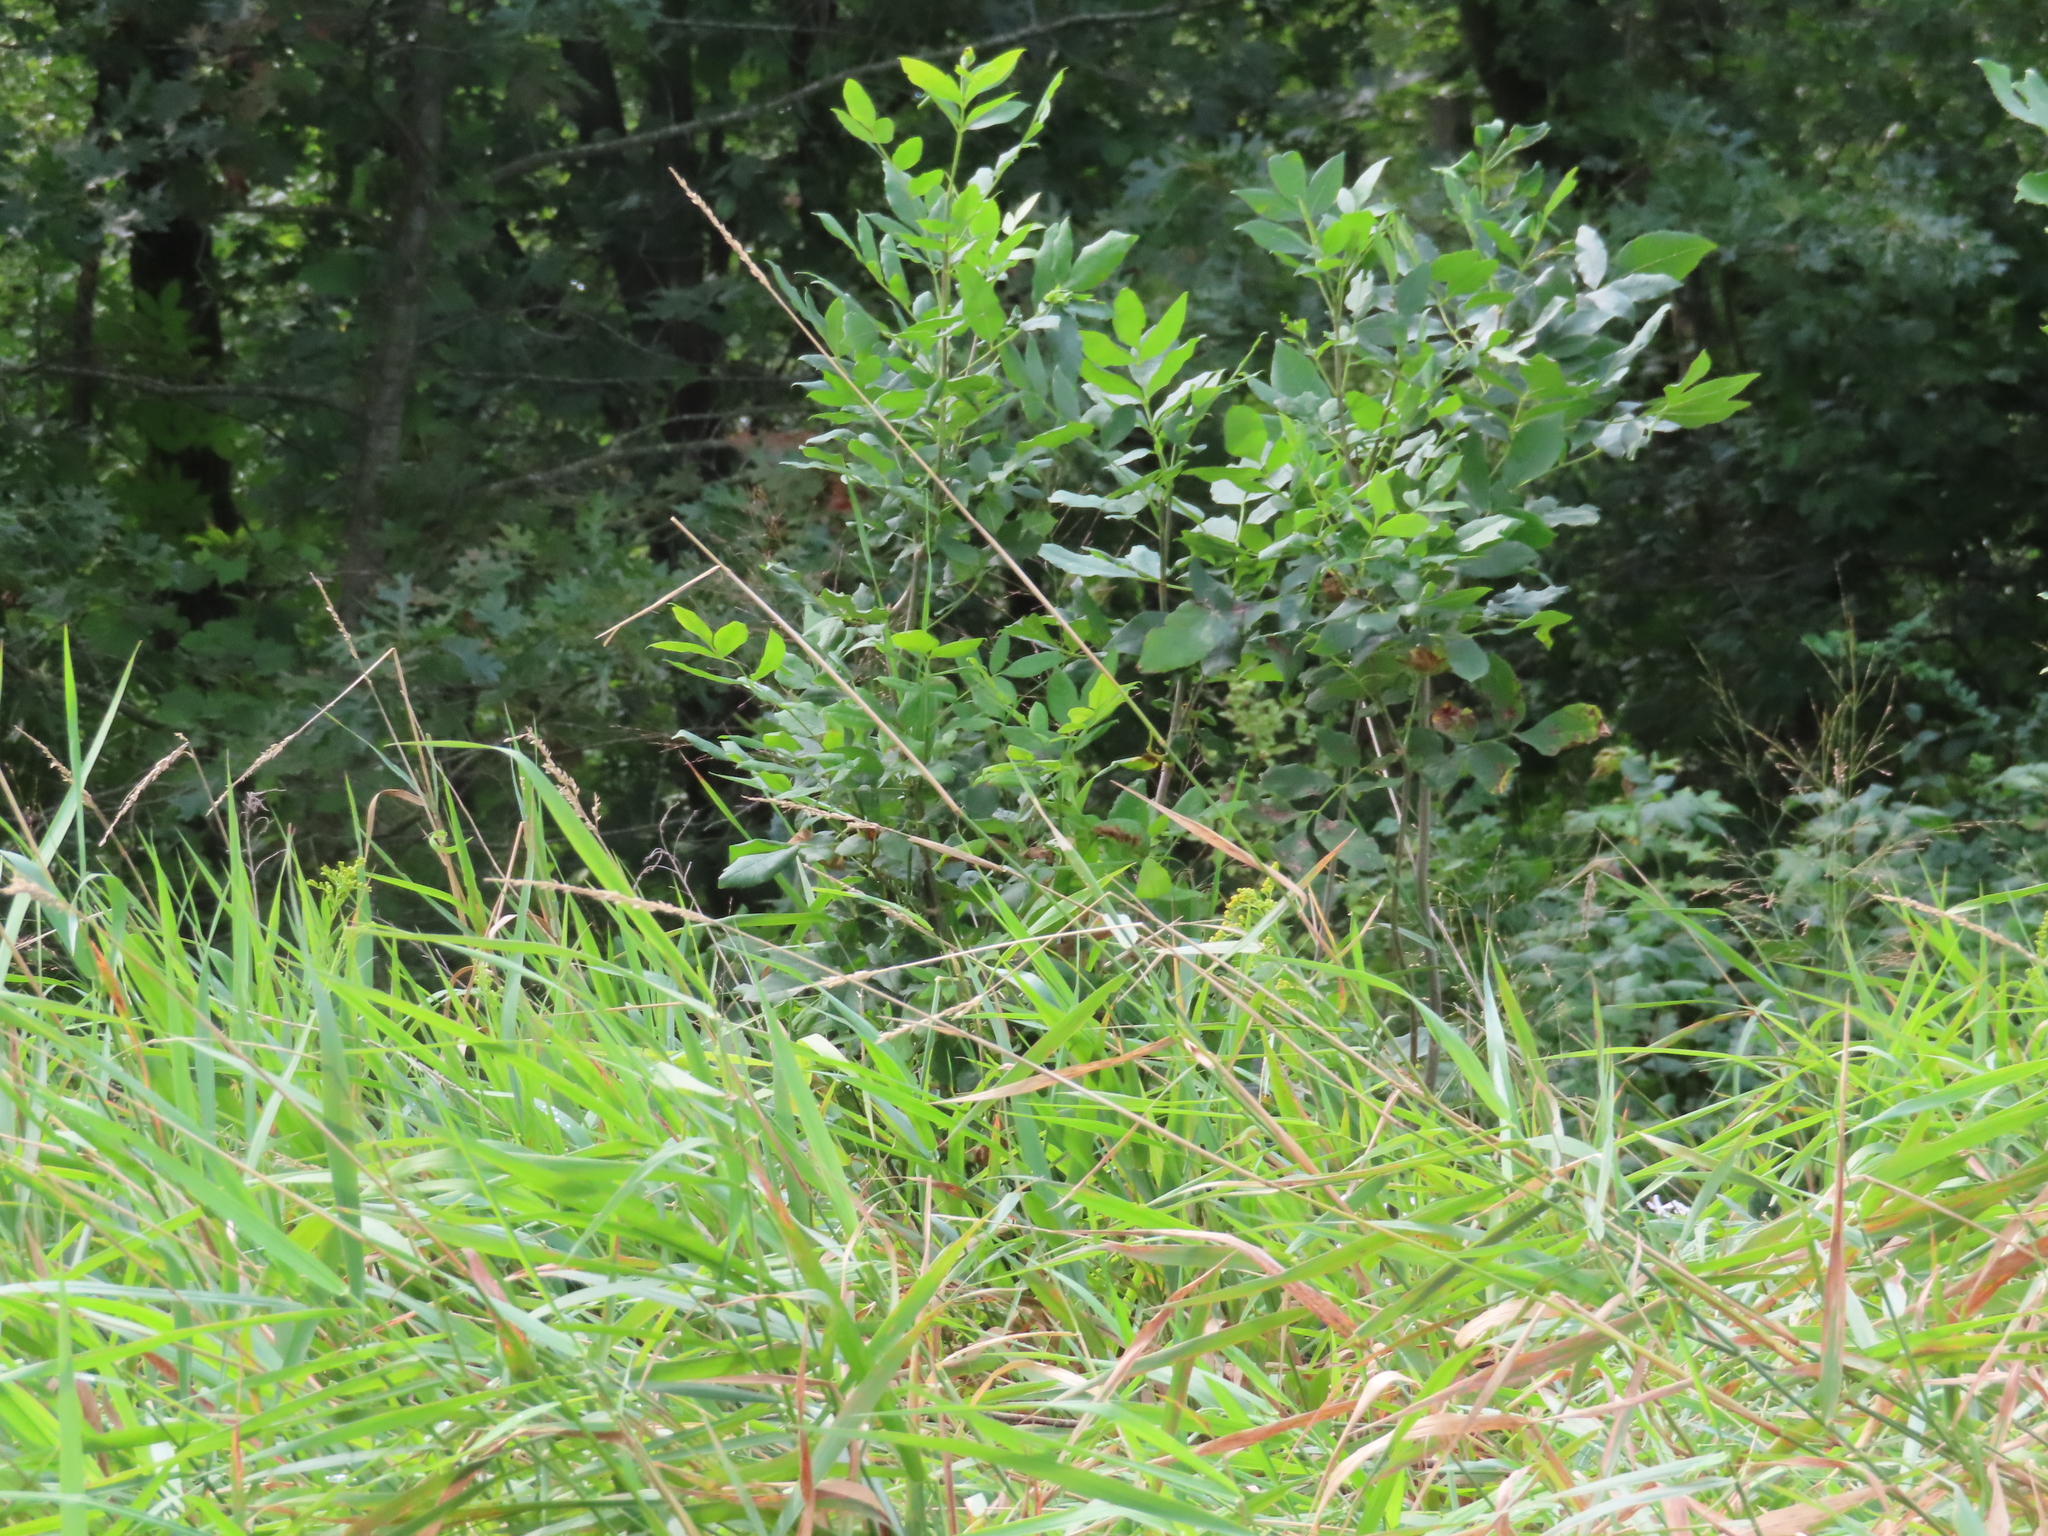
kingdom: Plantae
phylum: Tracheophyta
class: Liliopsida
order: Poales
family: Poaceae
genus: Phalaris
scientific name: Phalaris arundinacea
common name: Reed canary-grass
